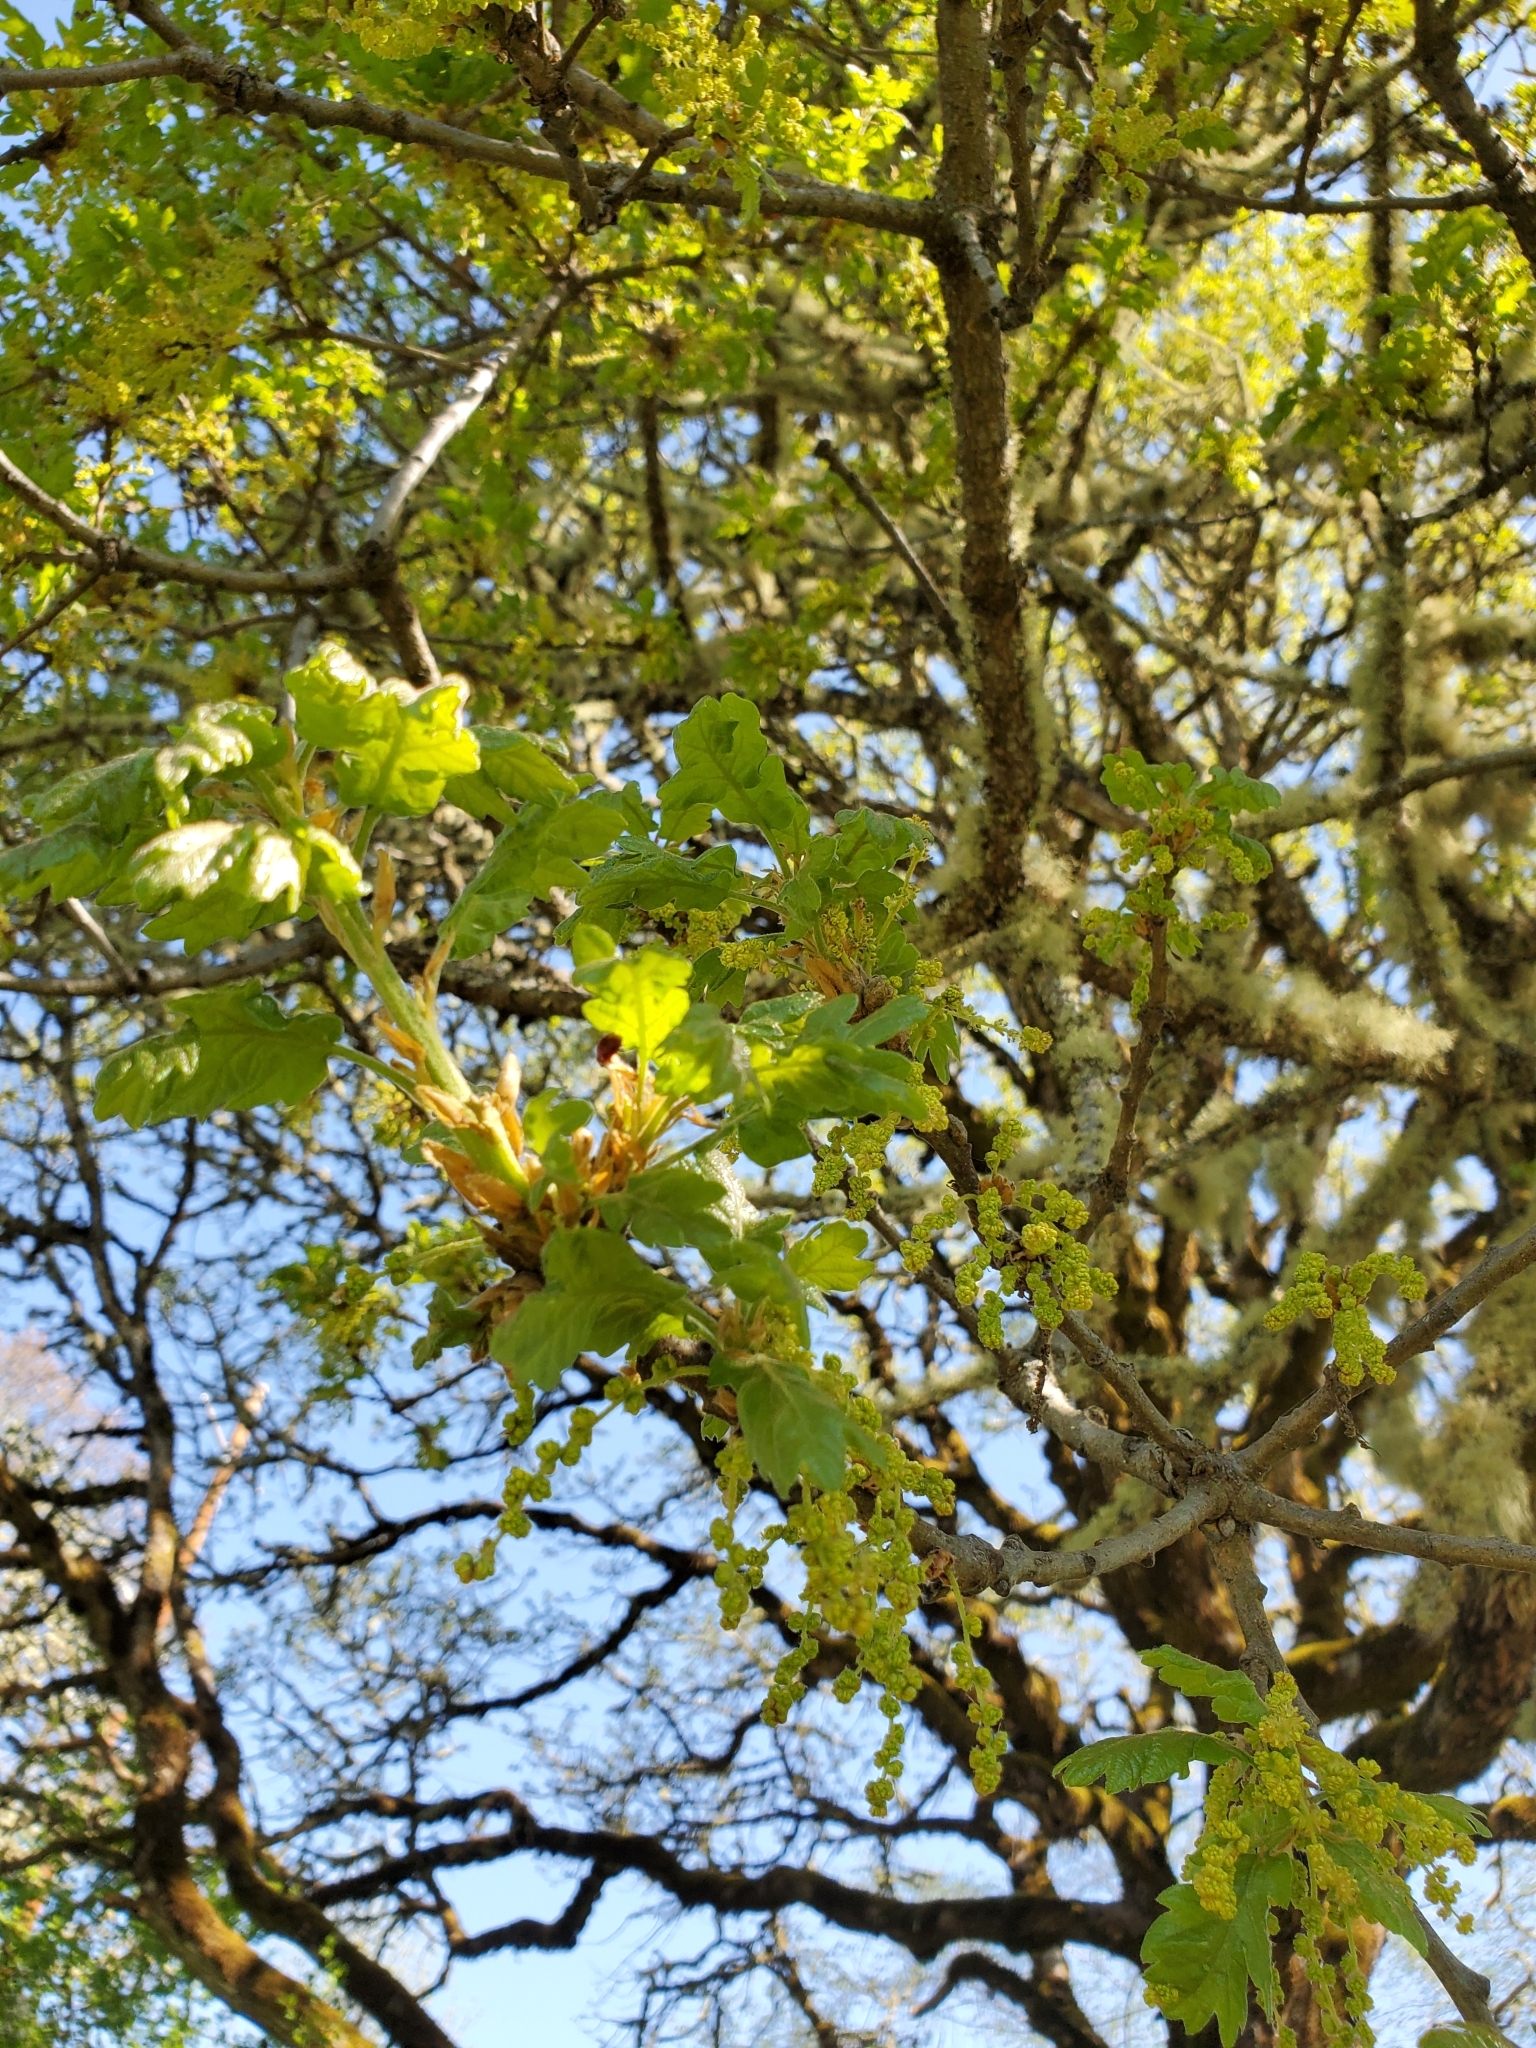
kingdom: Plantae
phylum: Tracheophyta
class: Magnoliopsida
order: Fagales
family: Fagaceae
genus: Quercus
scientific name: Quercus garryana
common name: Garry oak
